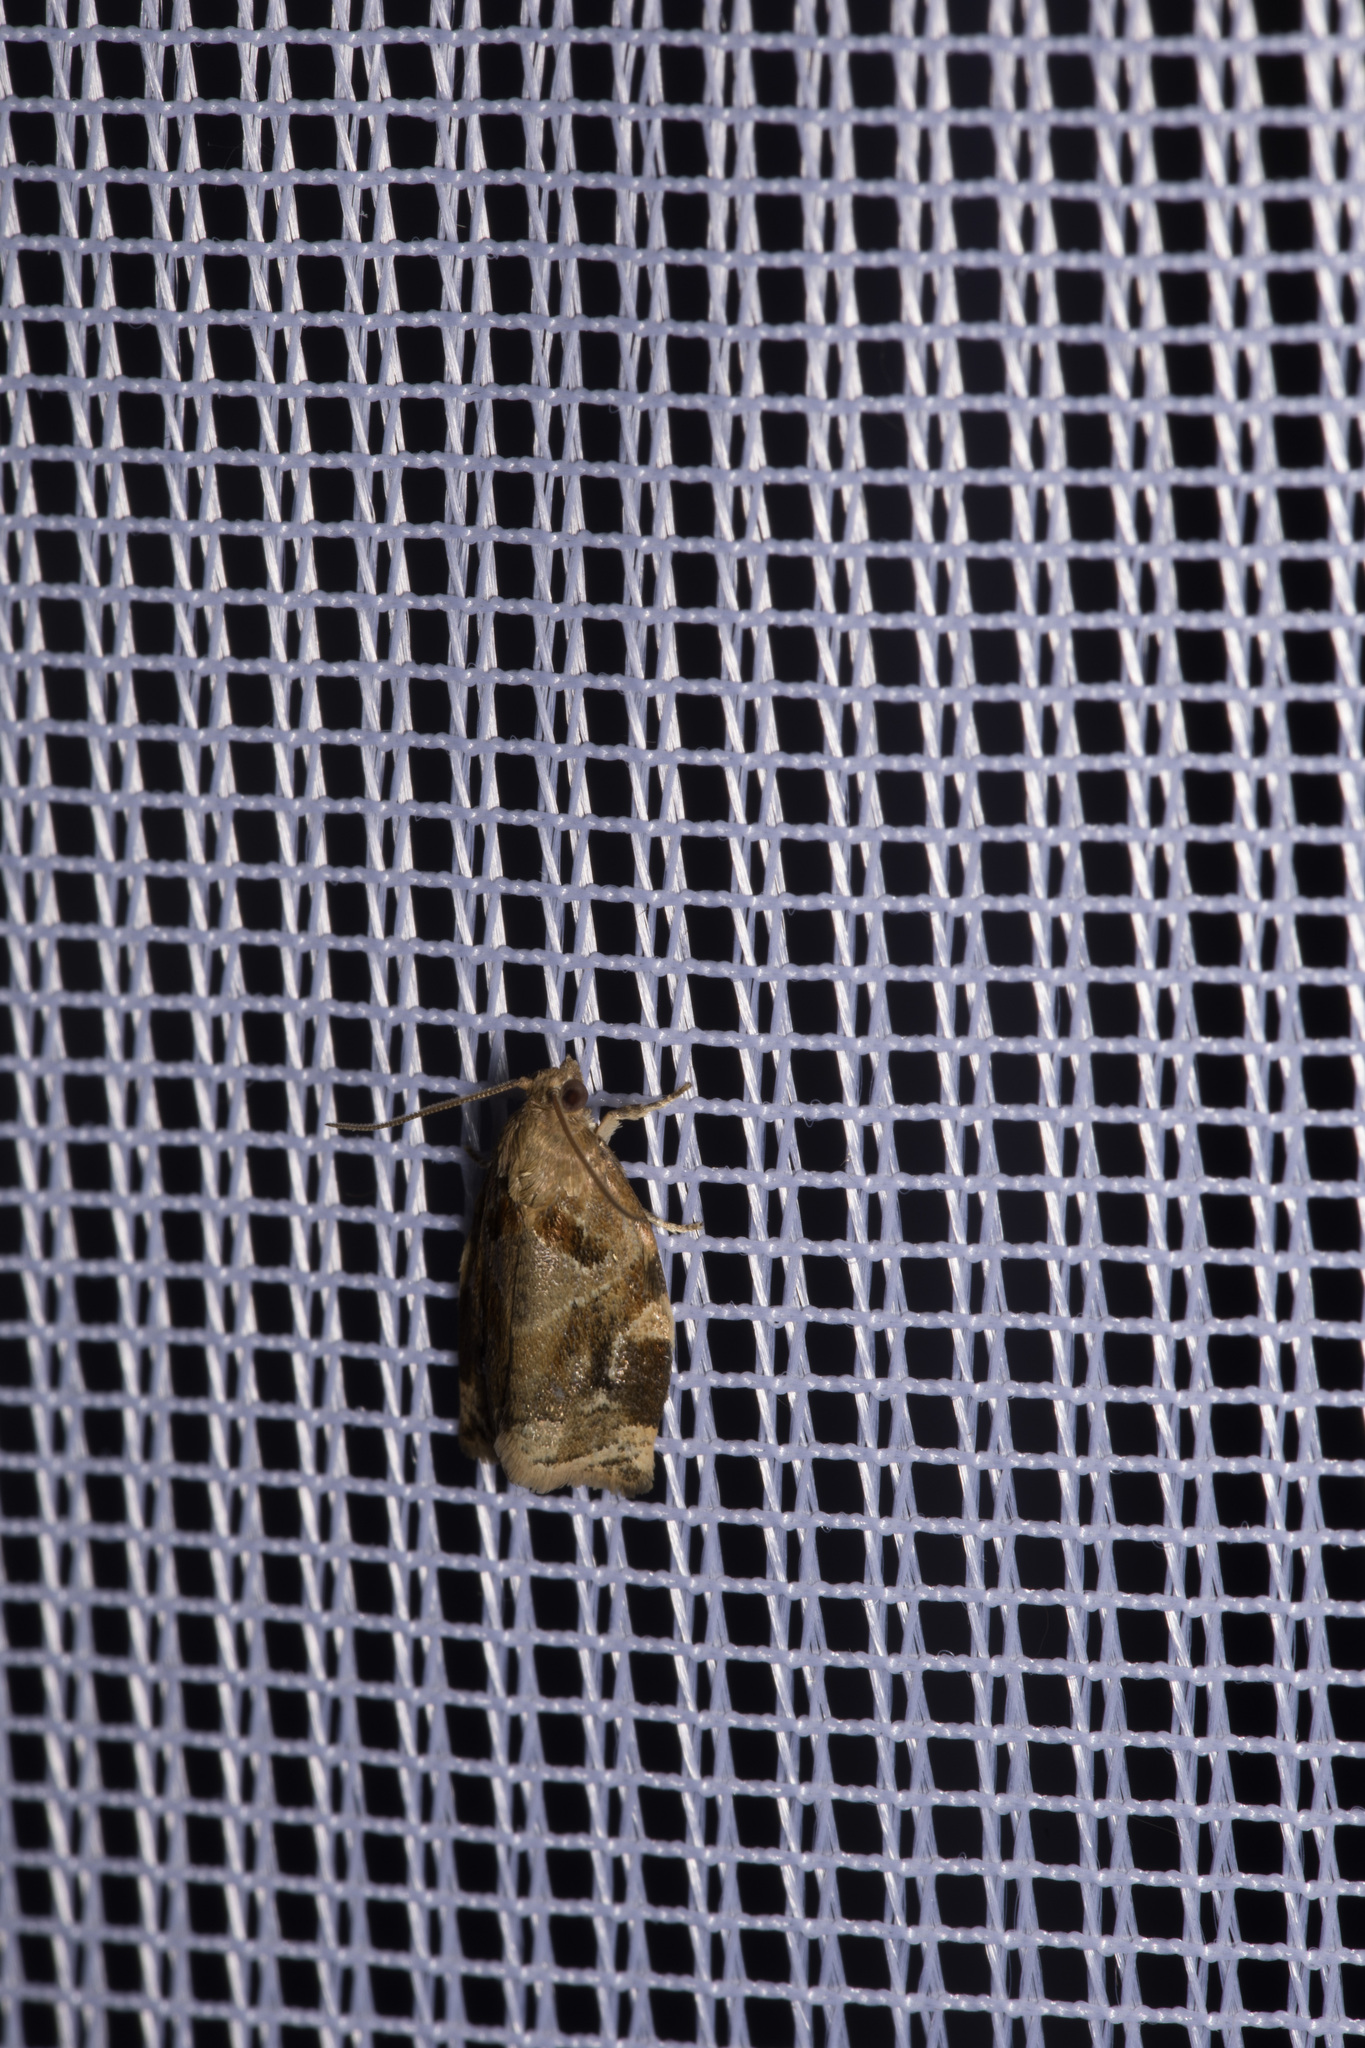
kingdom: Animalia
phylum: Arthropoda
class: Insecta
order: Lepidoptera
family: Tortricidae
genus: Archips
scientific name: Archips xylosteana
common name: Variegated golden tortrix
